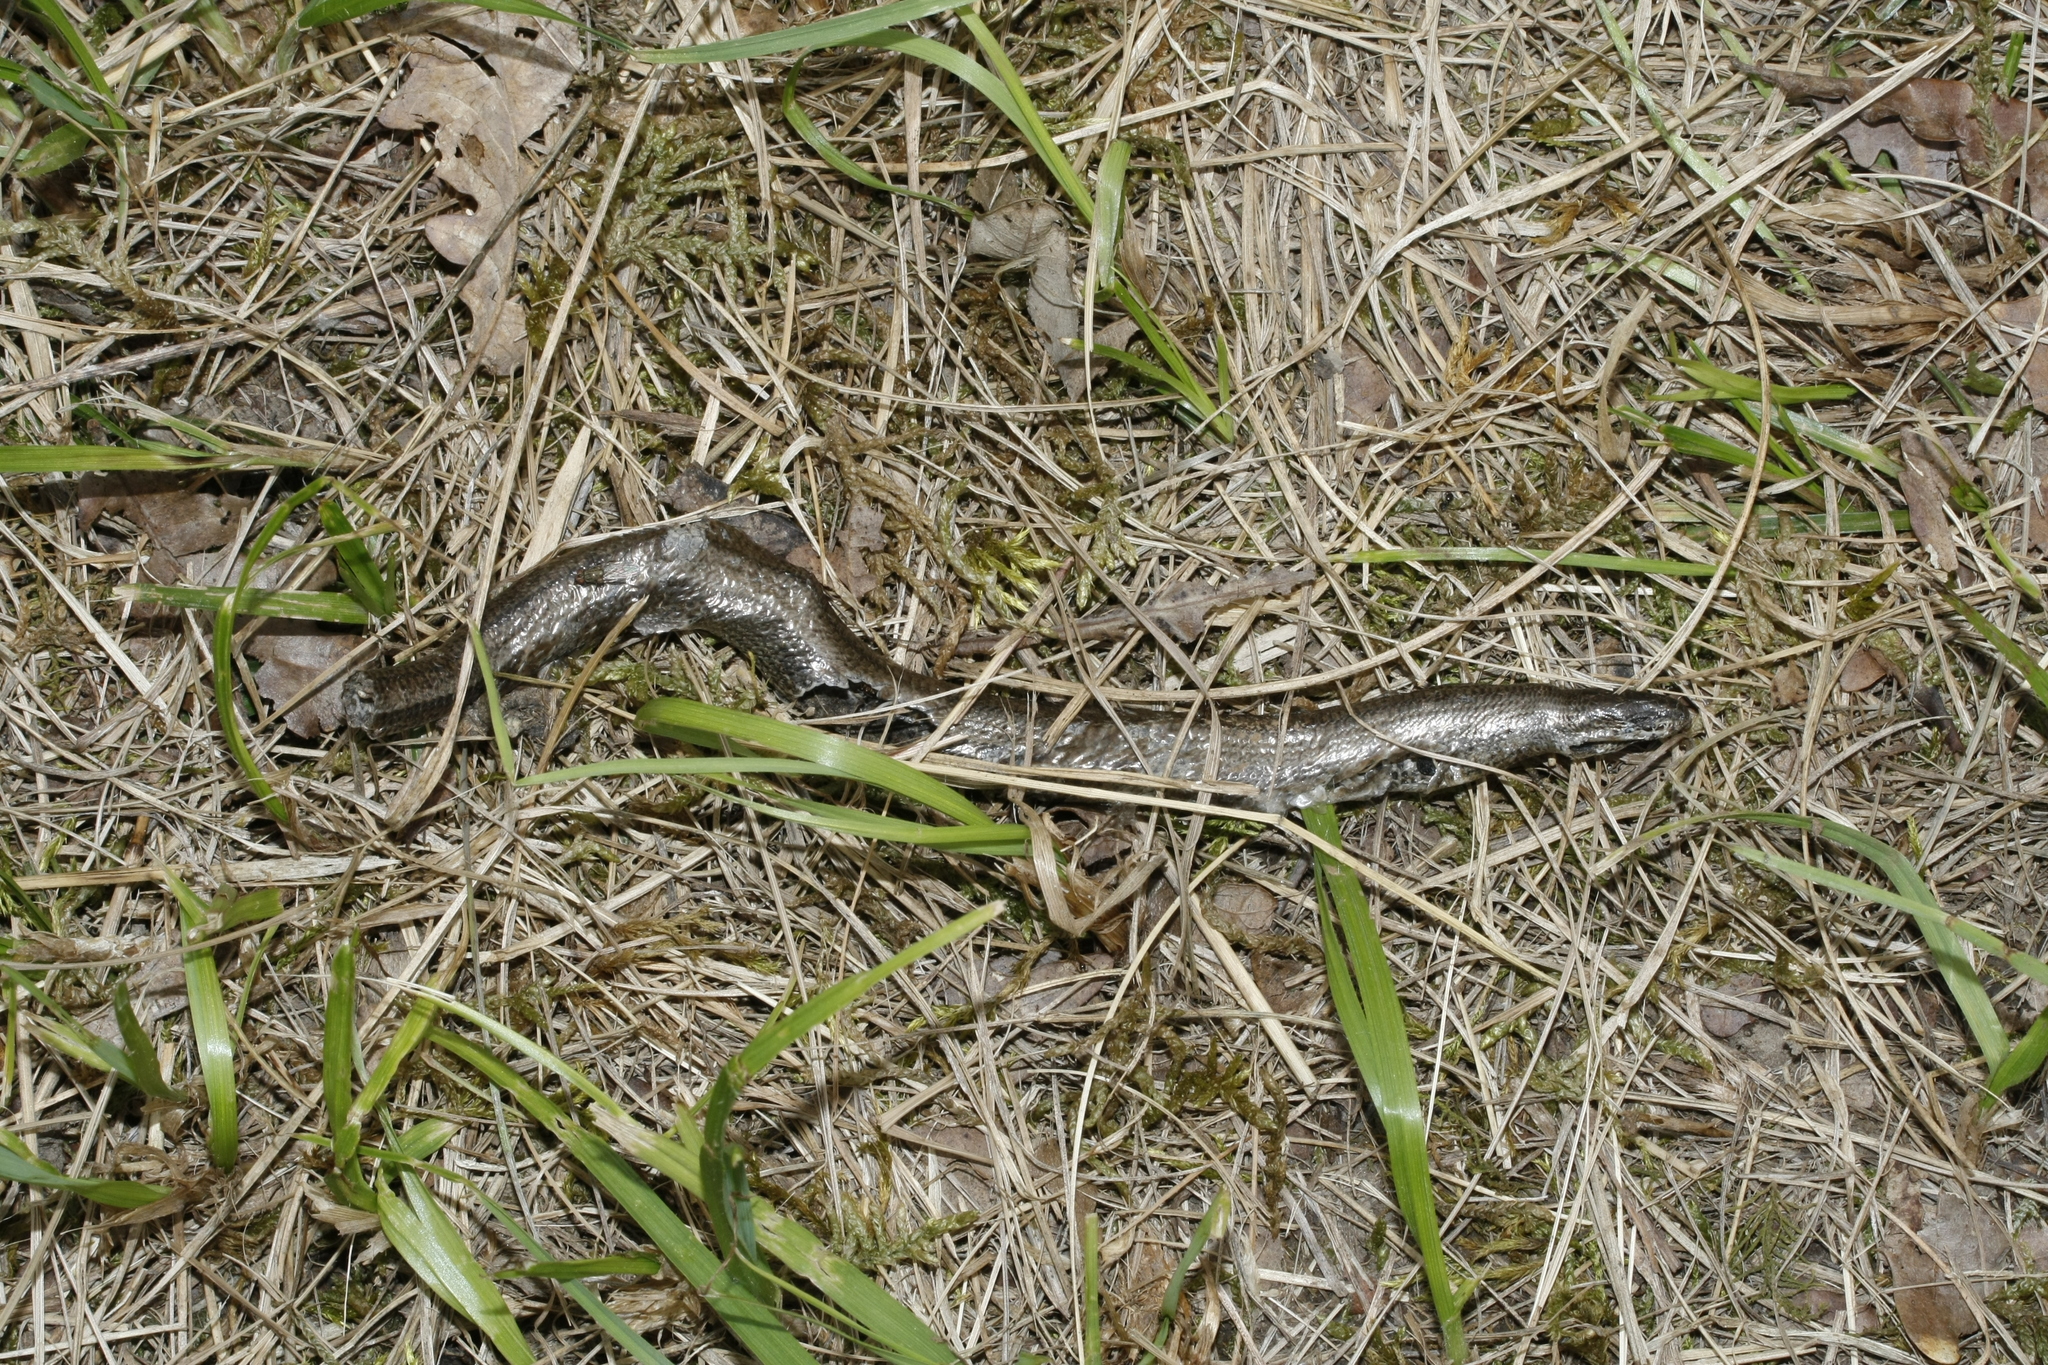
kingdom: Animalia
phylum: Chordata
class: Squamata
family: Anguidae
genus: Anguis
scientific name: Anguis fragilis
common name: Slow worm
